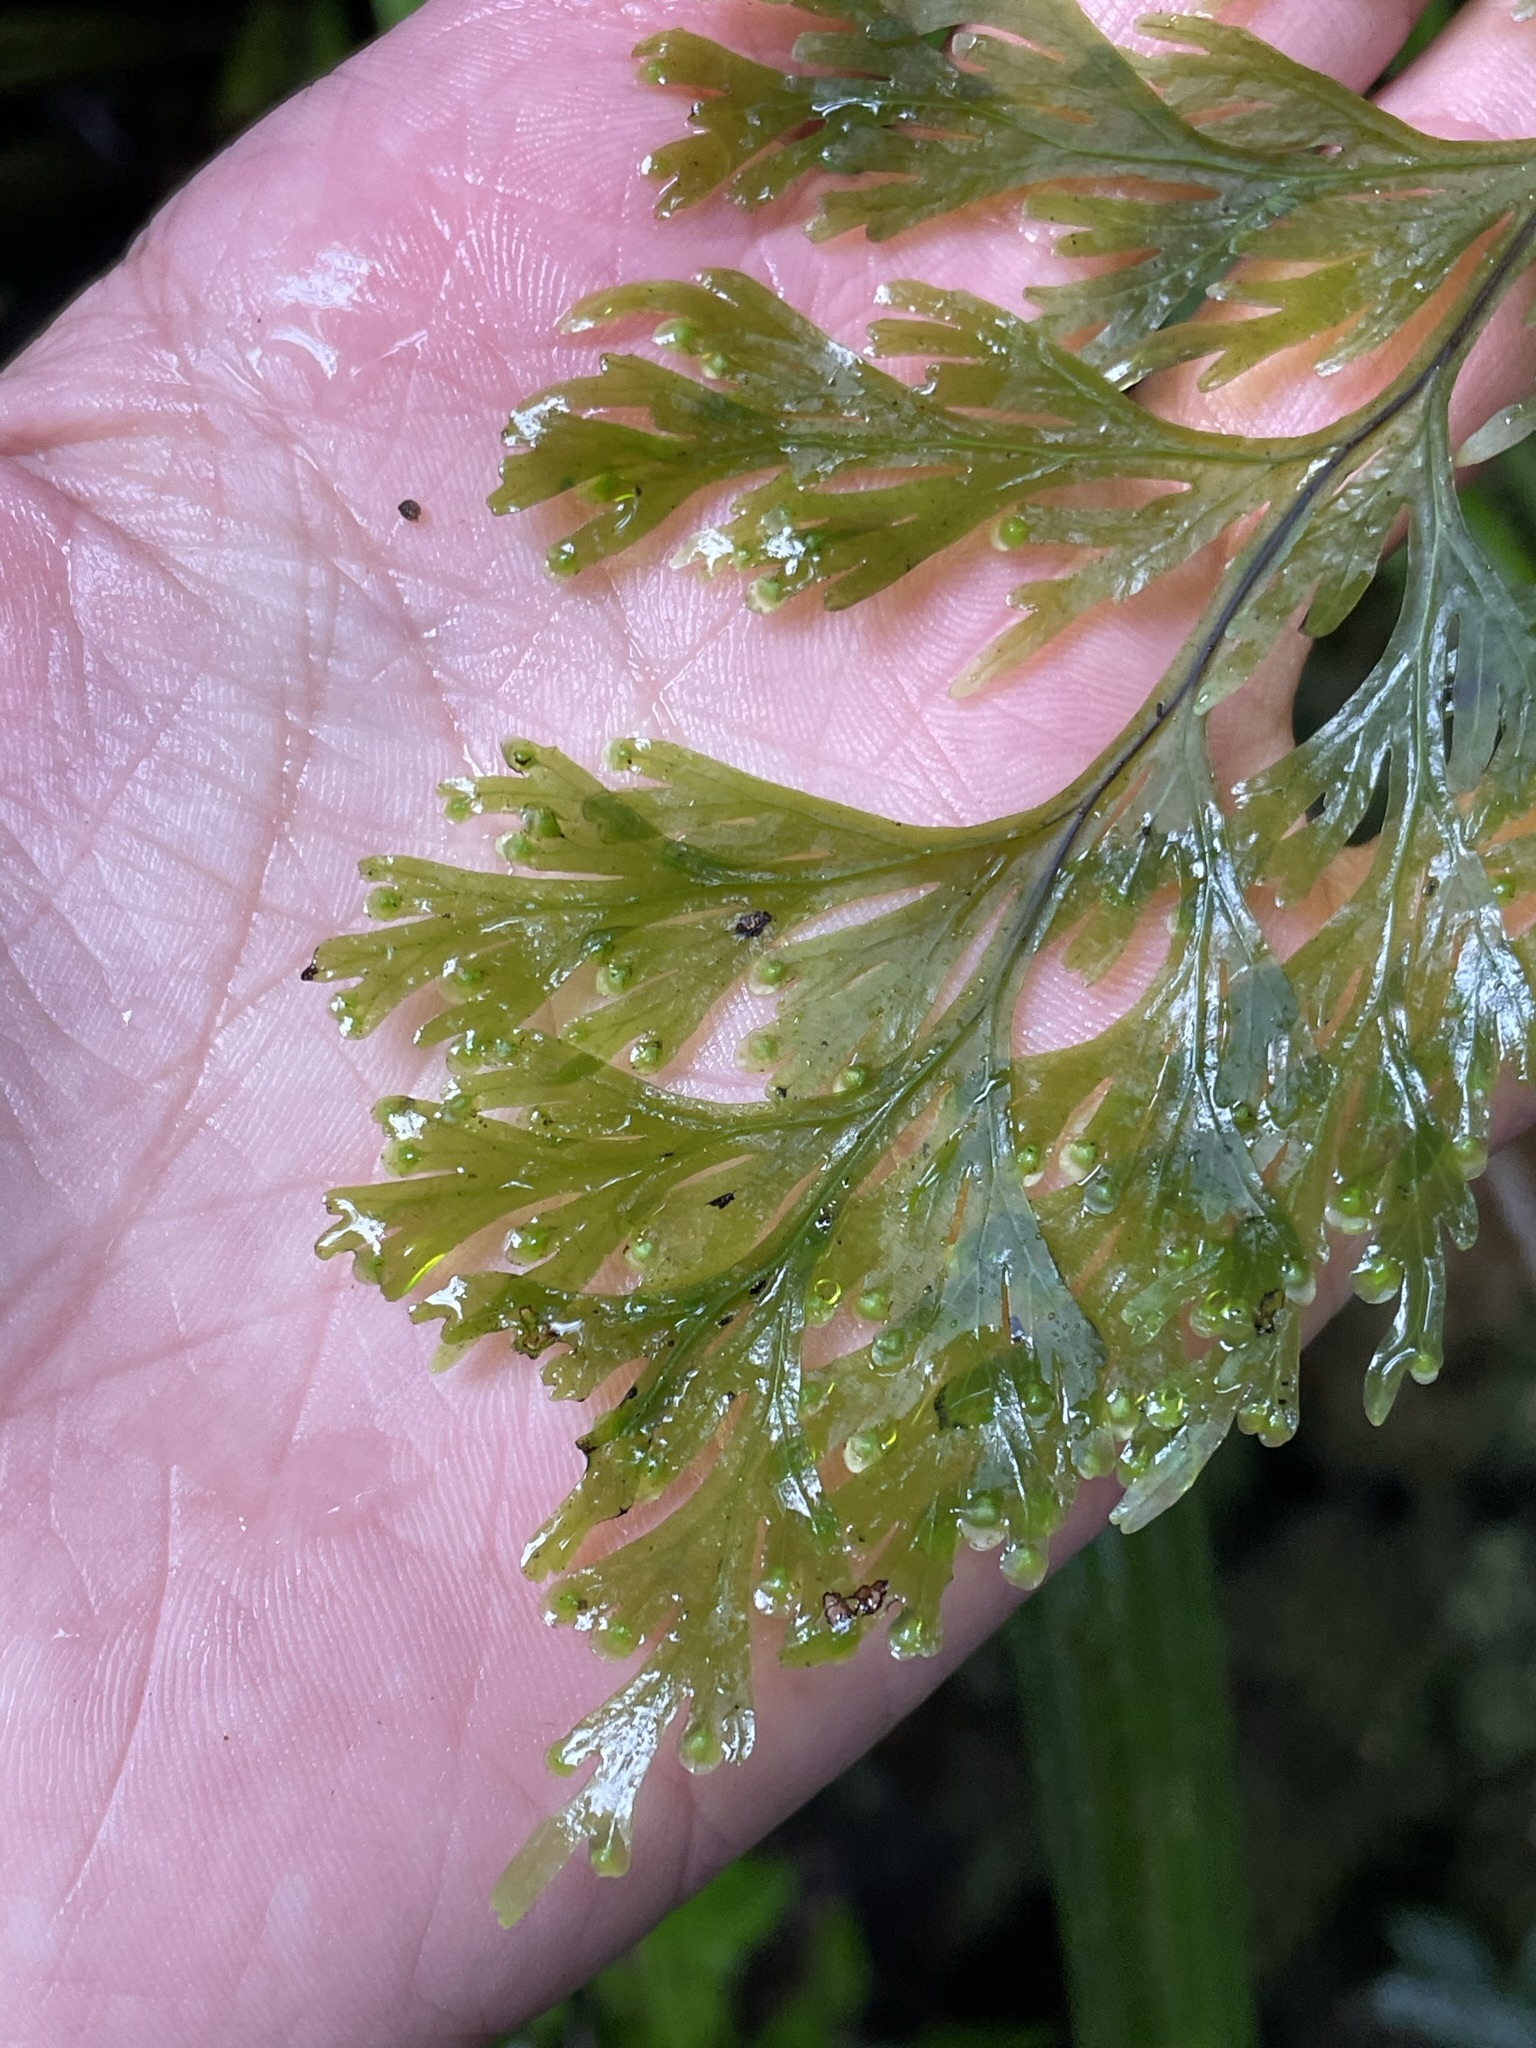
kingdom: Plantae
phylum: Tracheophyta
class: Polypodiopsida
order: Hymenophyllales
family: Hymenophyllaceae
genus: Hymenophyllum
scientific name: Hymenophyllum dilatatum
